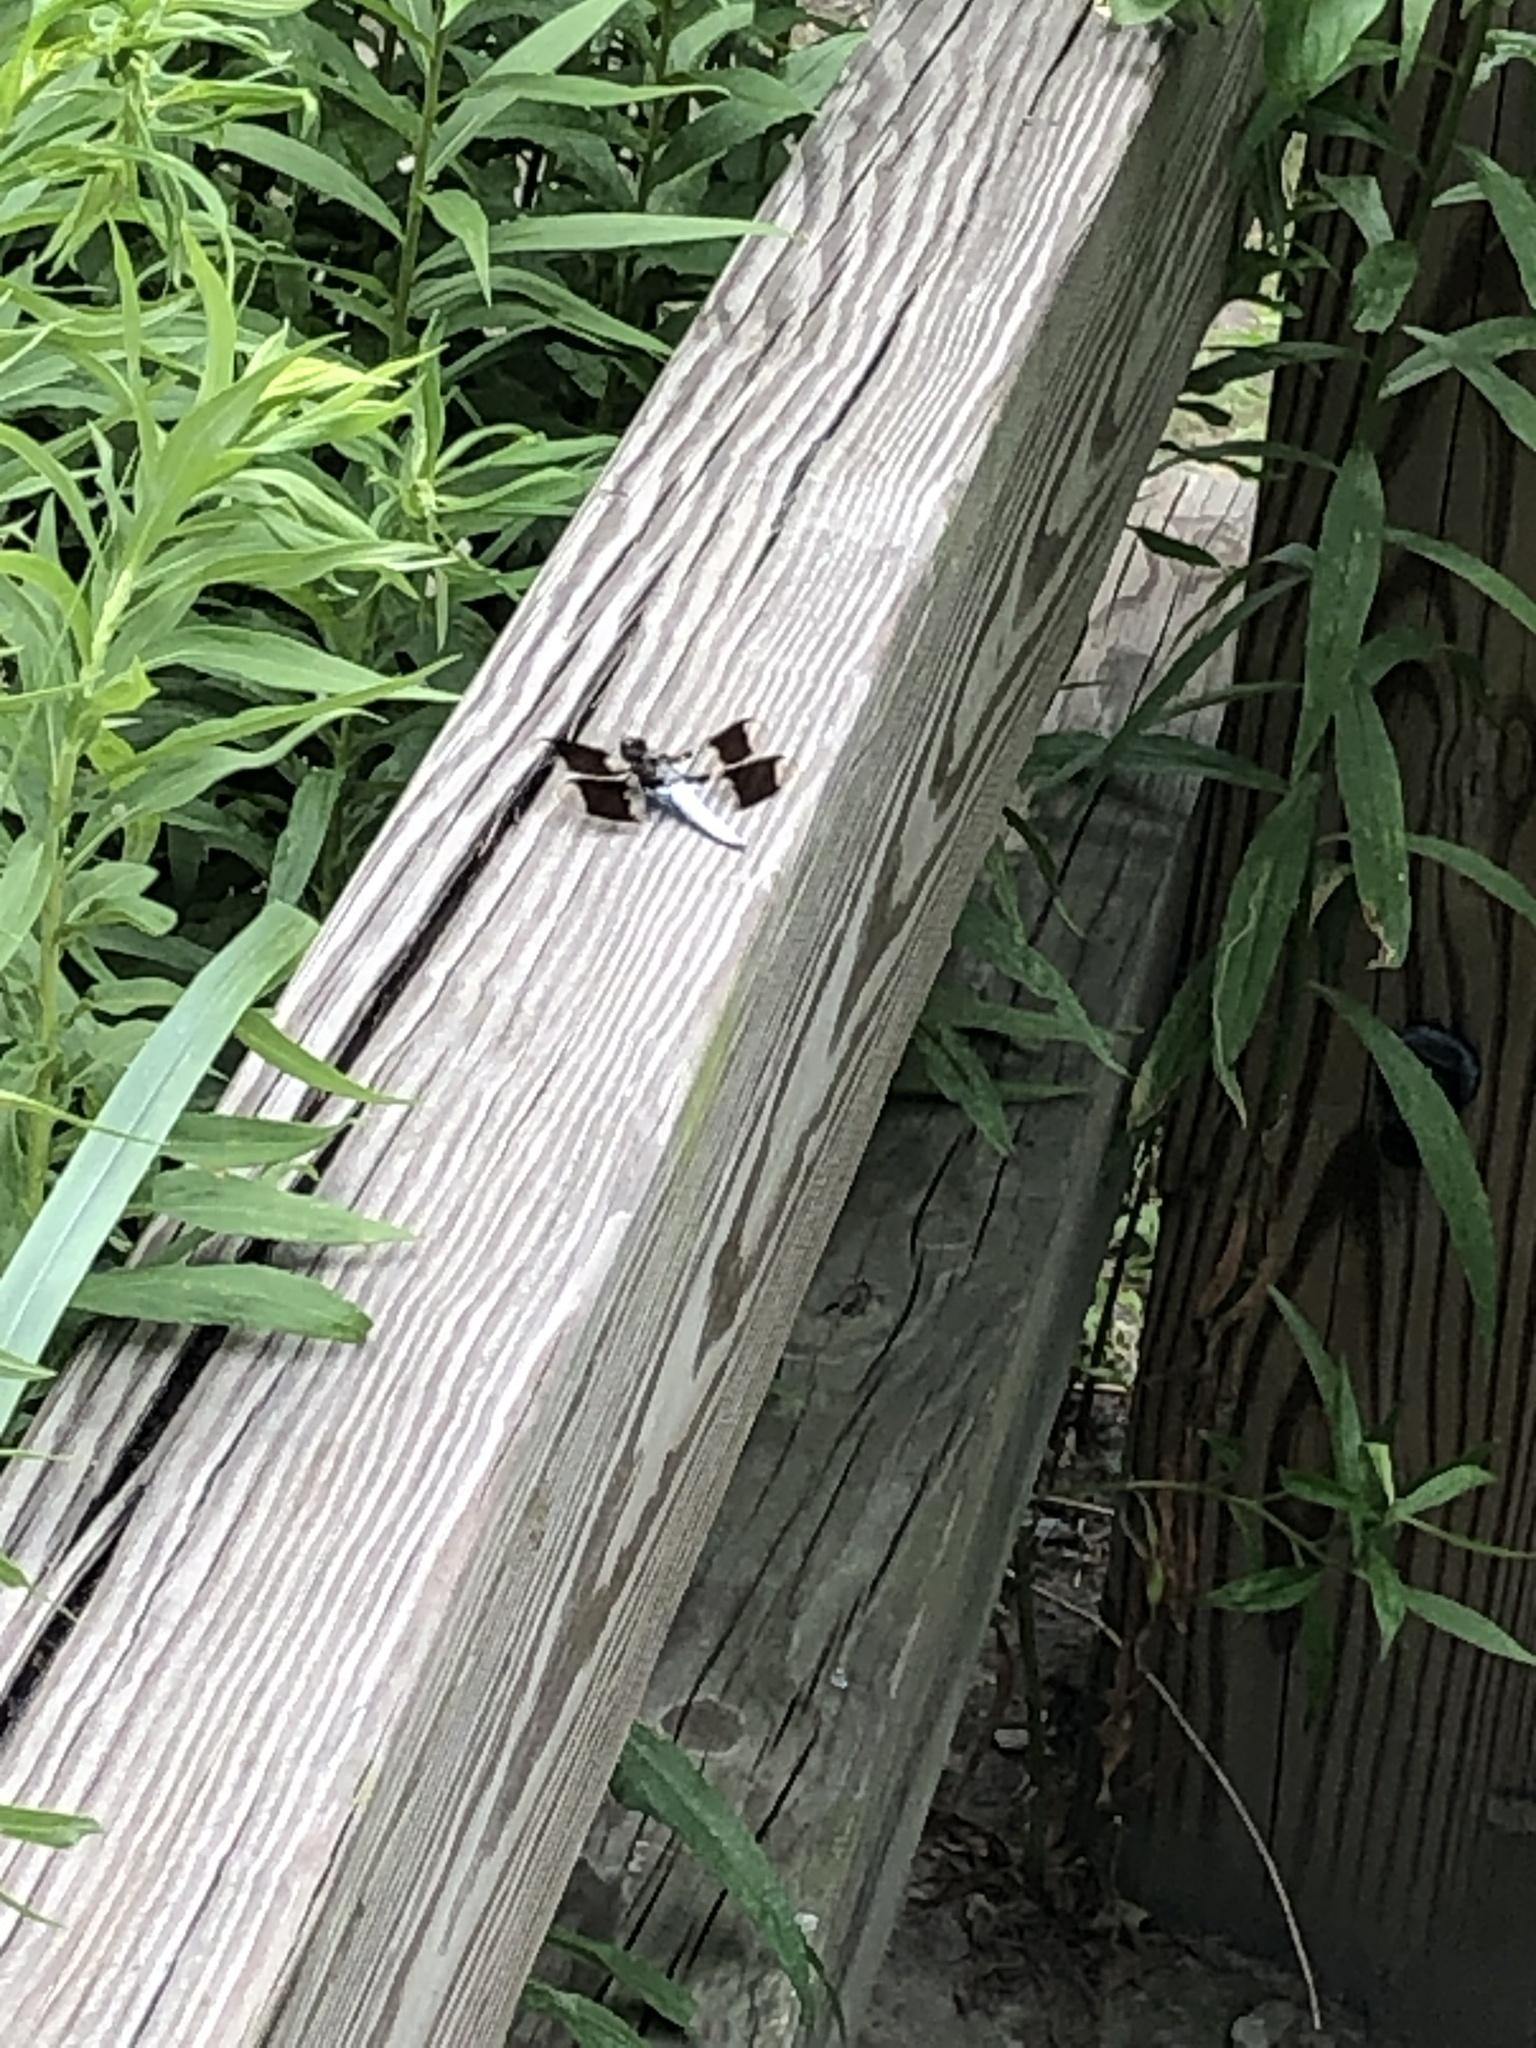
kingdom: Animalia
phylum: Arthropoda
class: Insecta
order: Odonata
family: Libellulidae
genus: Plathemis
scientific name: Plathemis lydia
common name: Common whitetail
